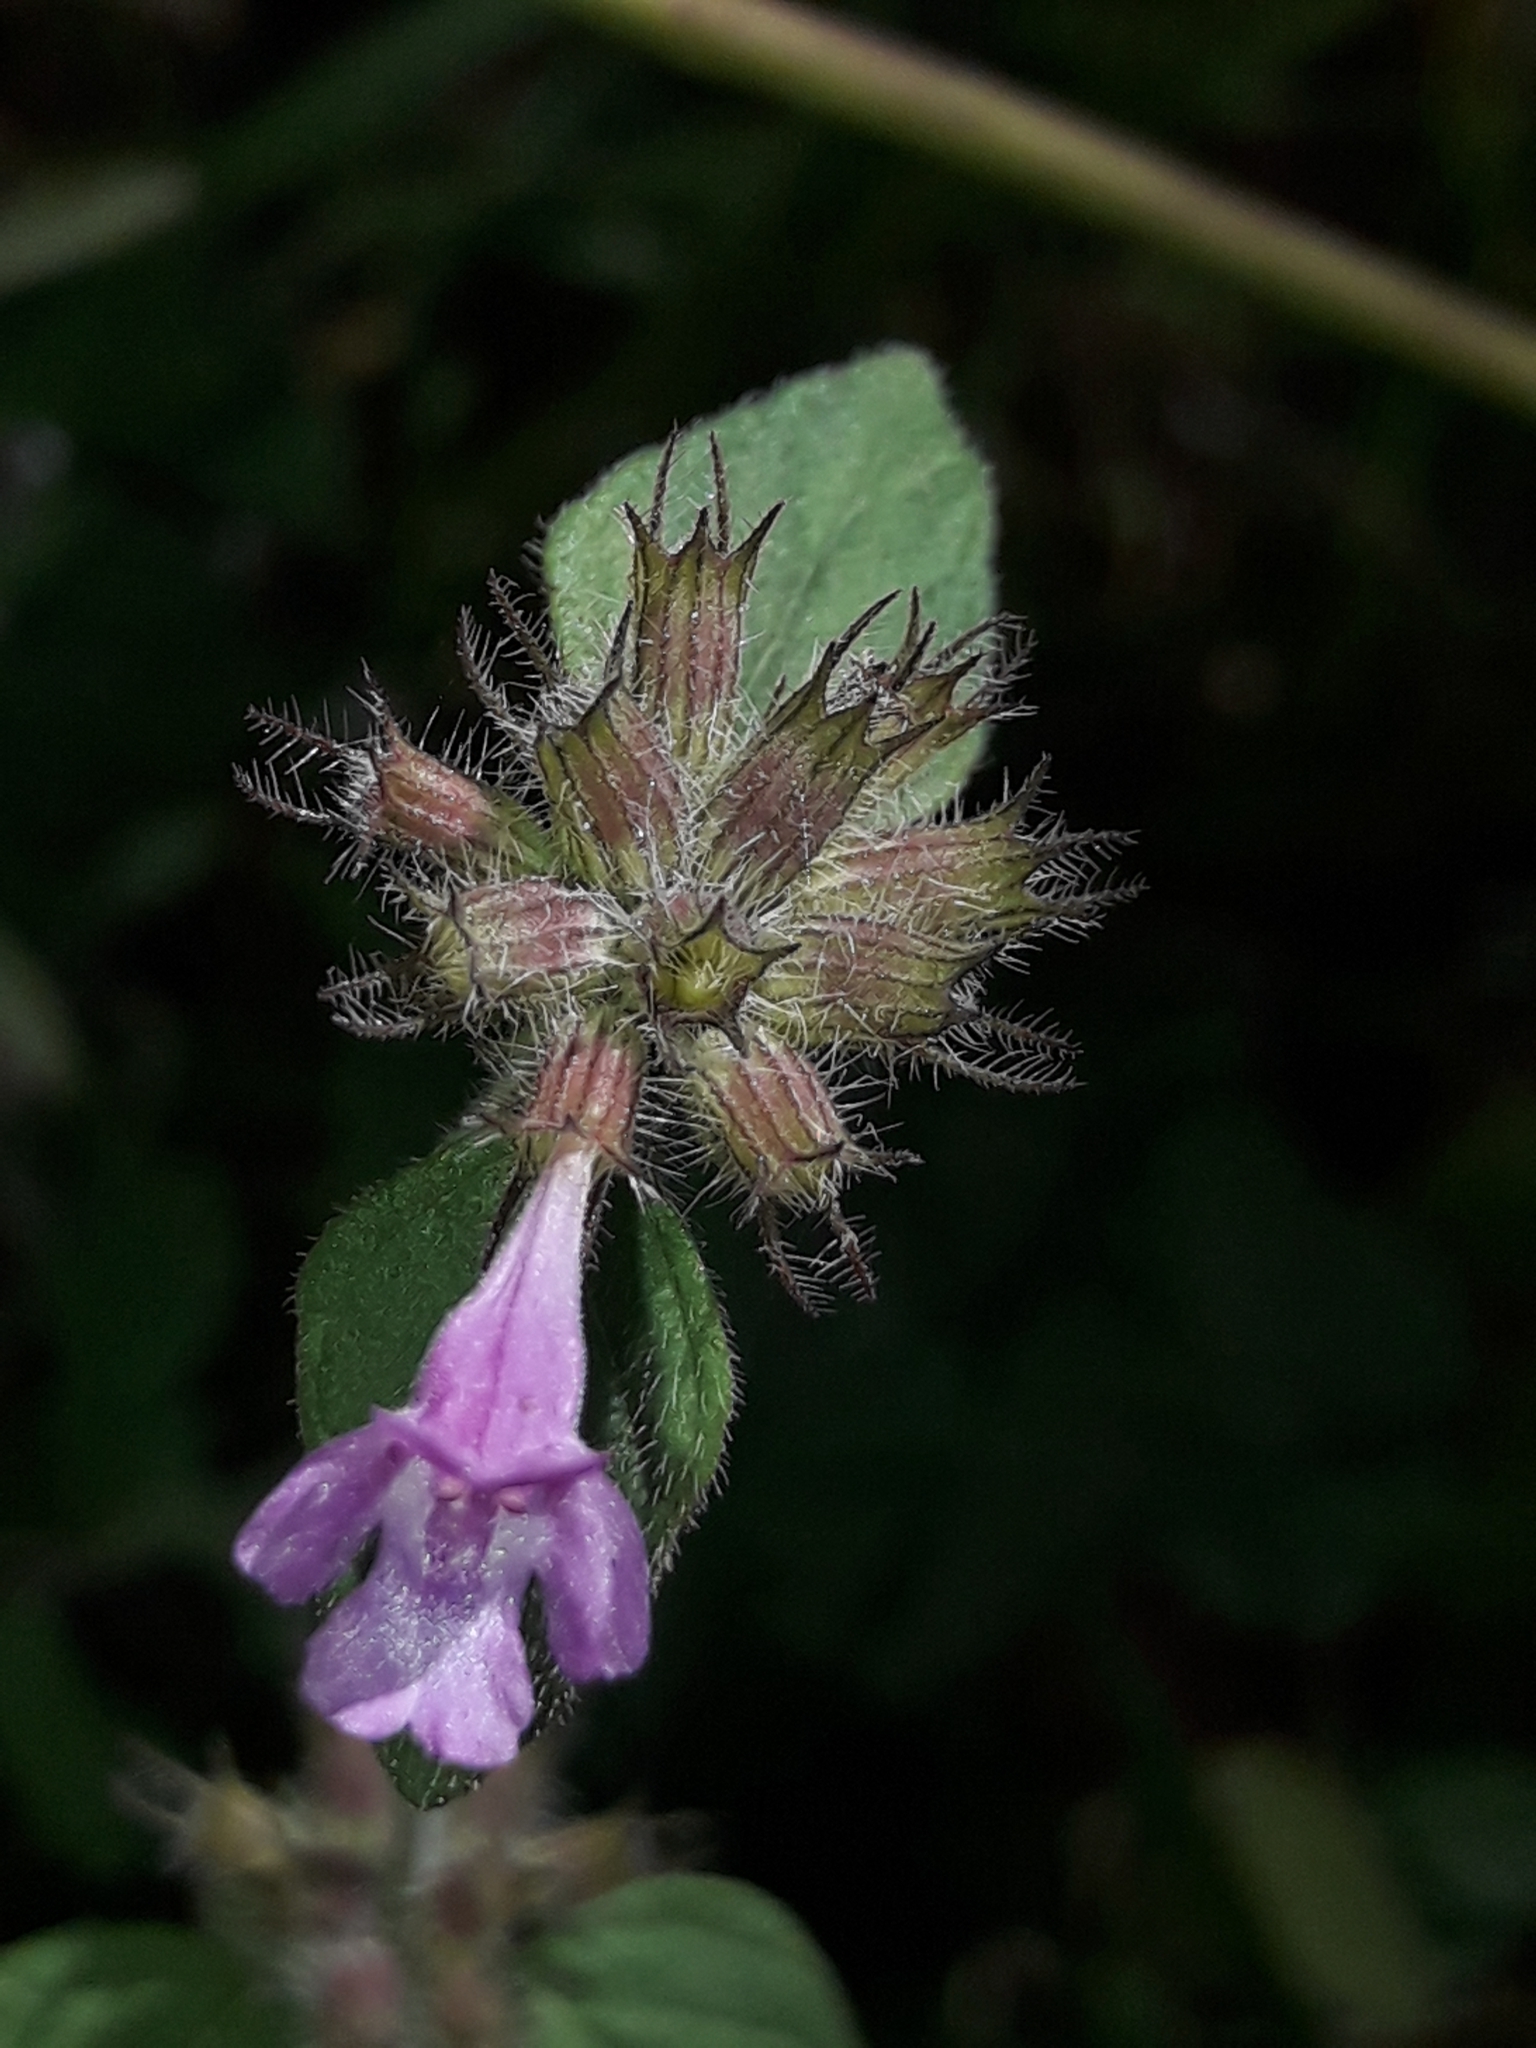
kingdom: Plantae
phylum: Tracheophyta
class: Magnoliopsida
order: Lamiales
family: Lamiaceae
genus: Clinopodium
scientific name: Clinopodium vulgare
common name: Wild basil
